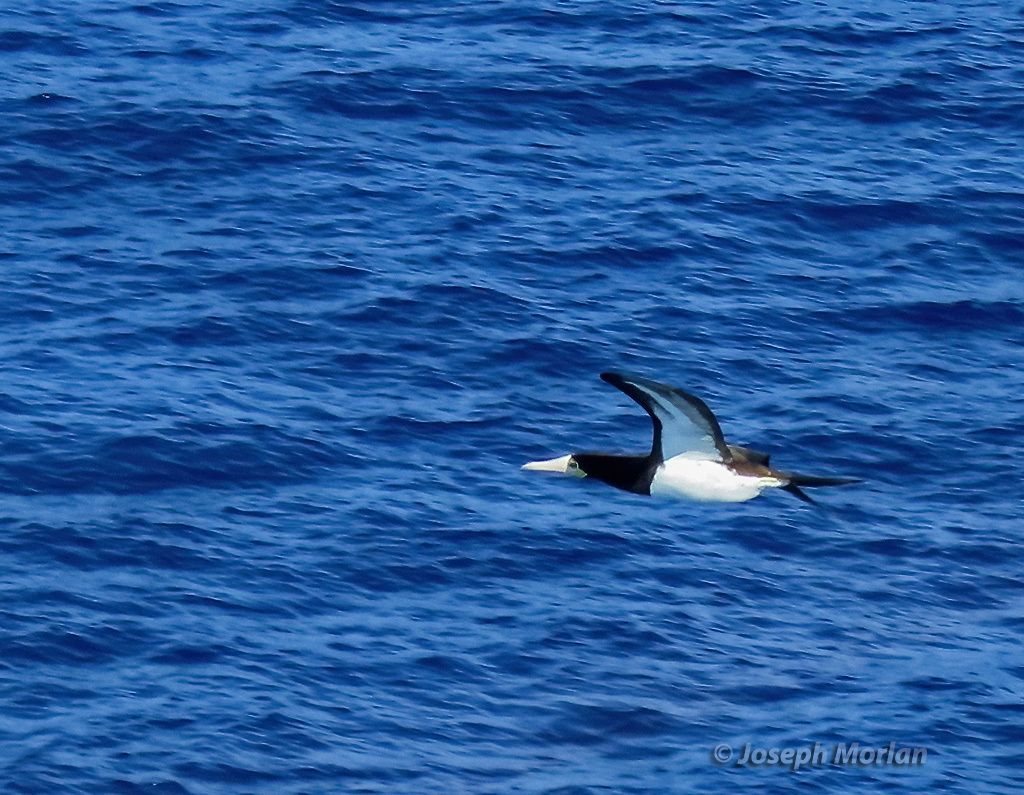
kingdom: Animalia
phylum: Chordata
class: Aves
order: Suliformes
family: Sulidae
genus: Sula
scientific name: Sula leucogaster
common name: Brown booby
